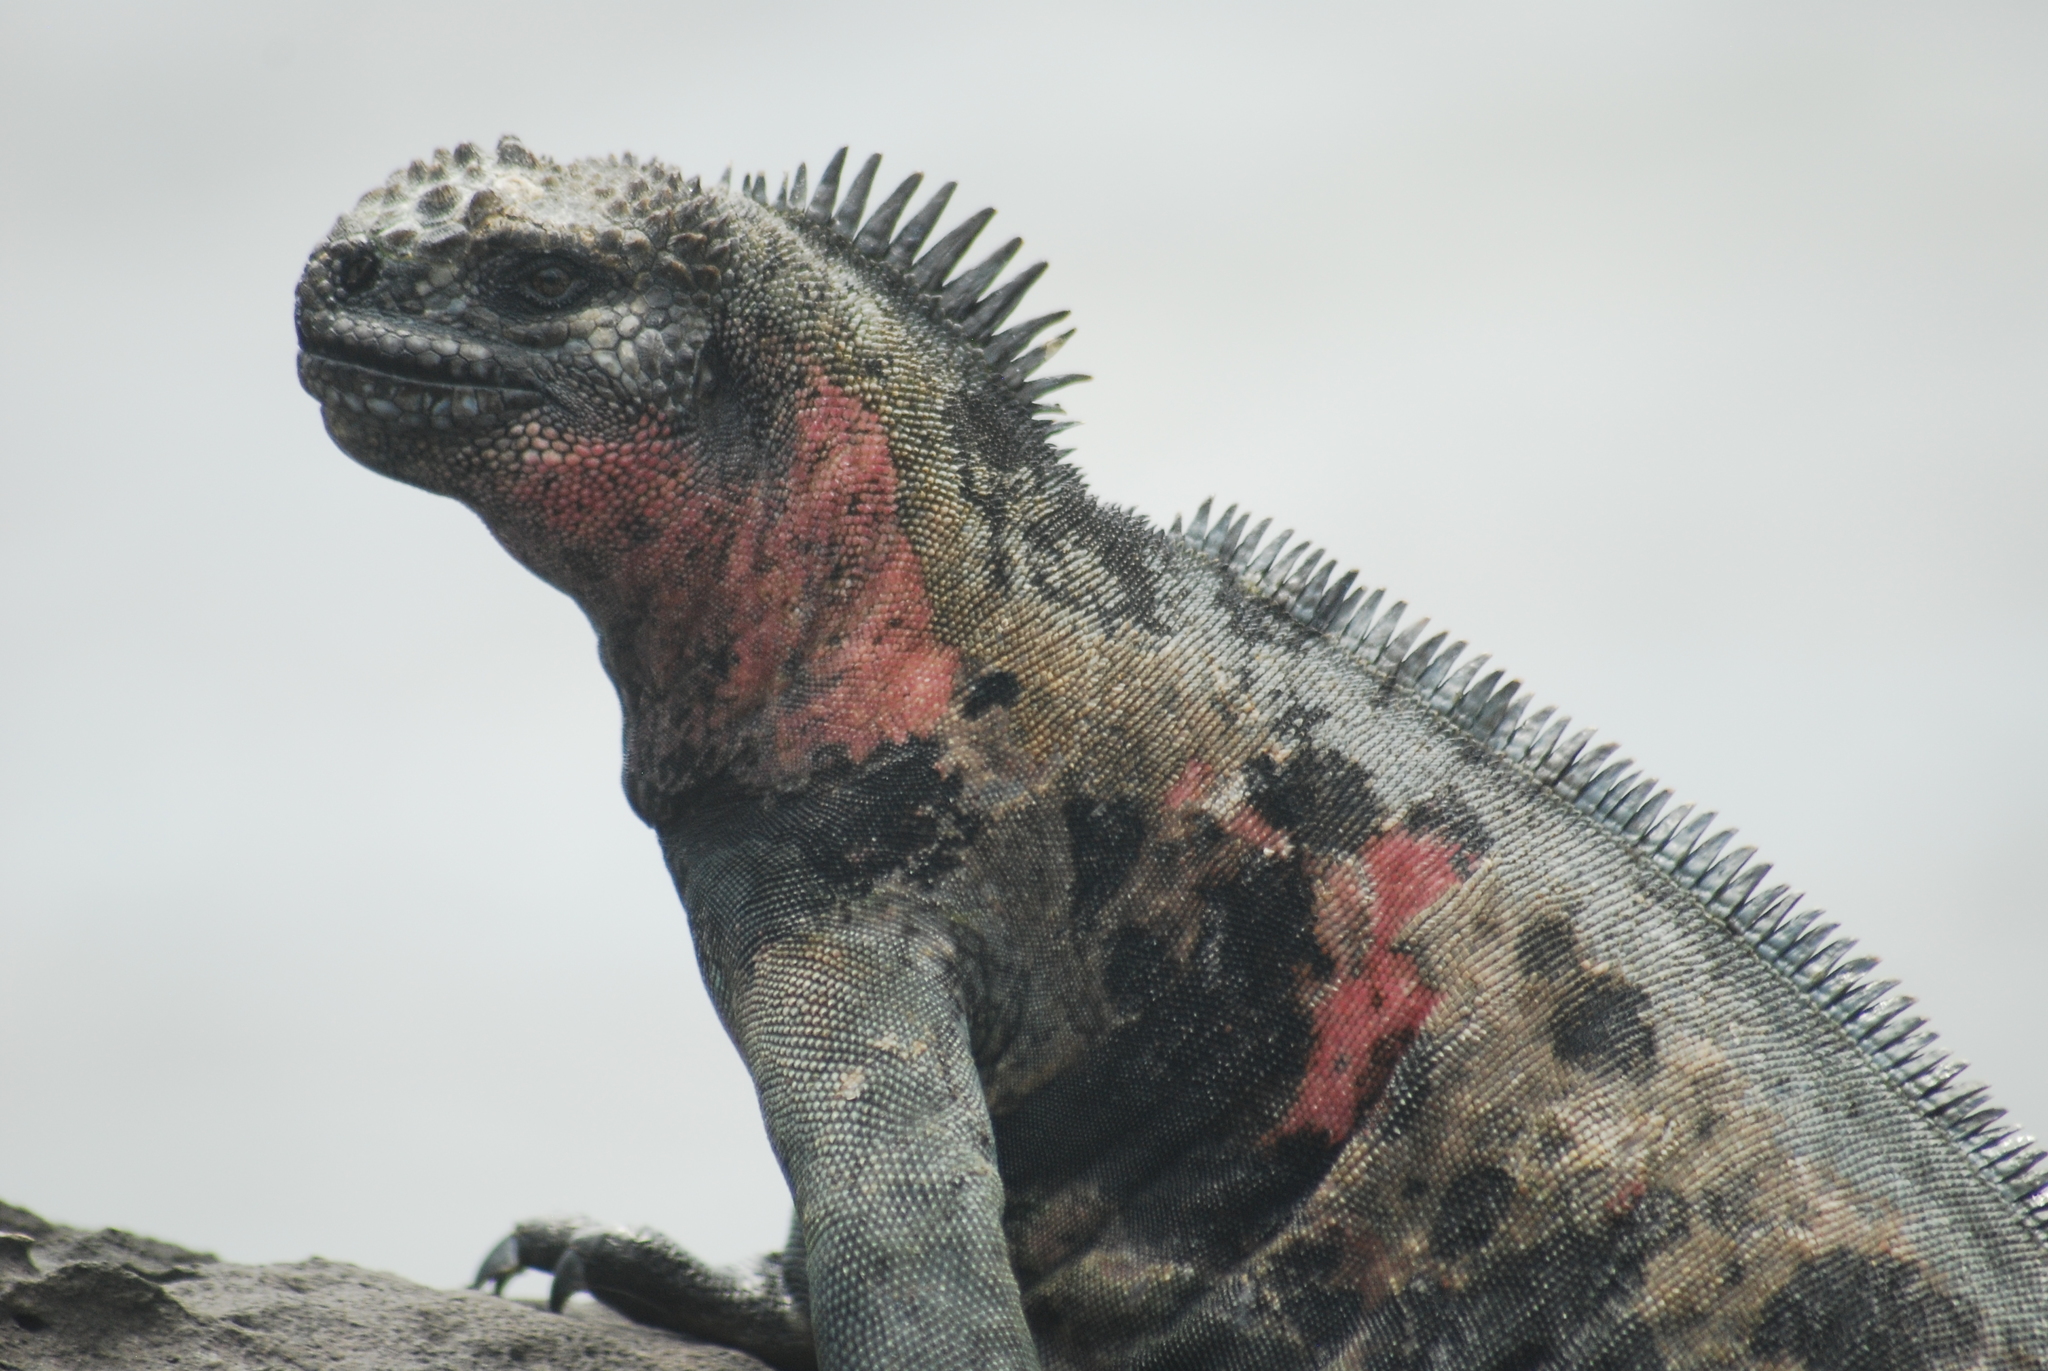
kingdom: Animalia
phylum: Chordata
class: Squamata
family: Iguanidae
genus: Amblyrhynchus
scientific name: Amblyrhynchus cristatus
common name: Marine iguana
